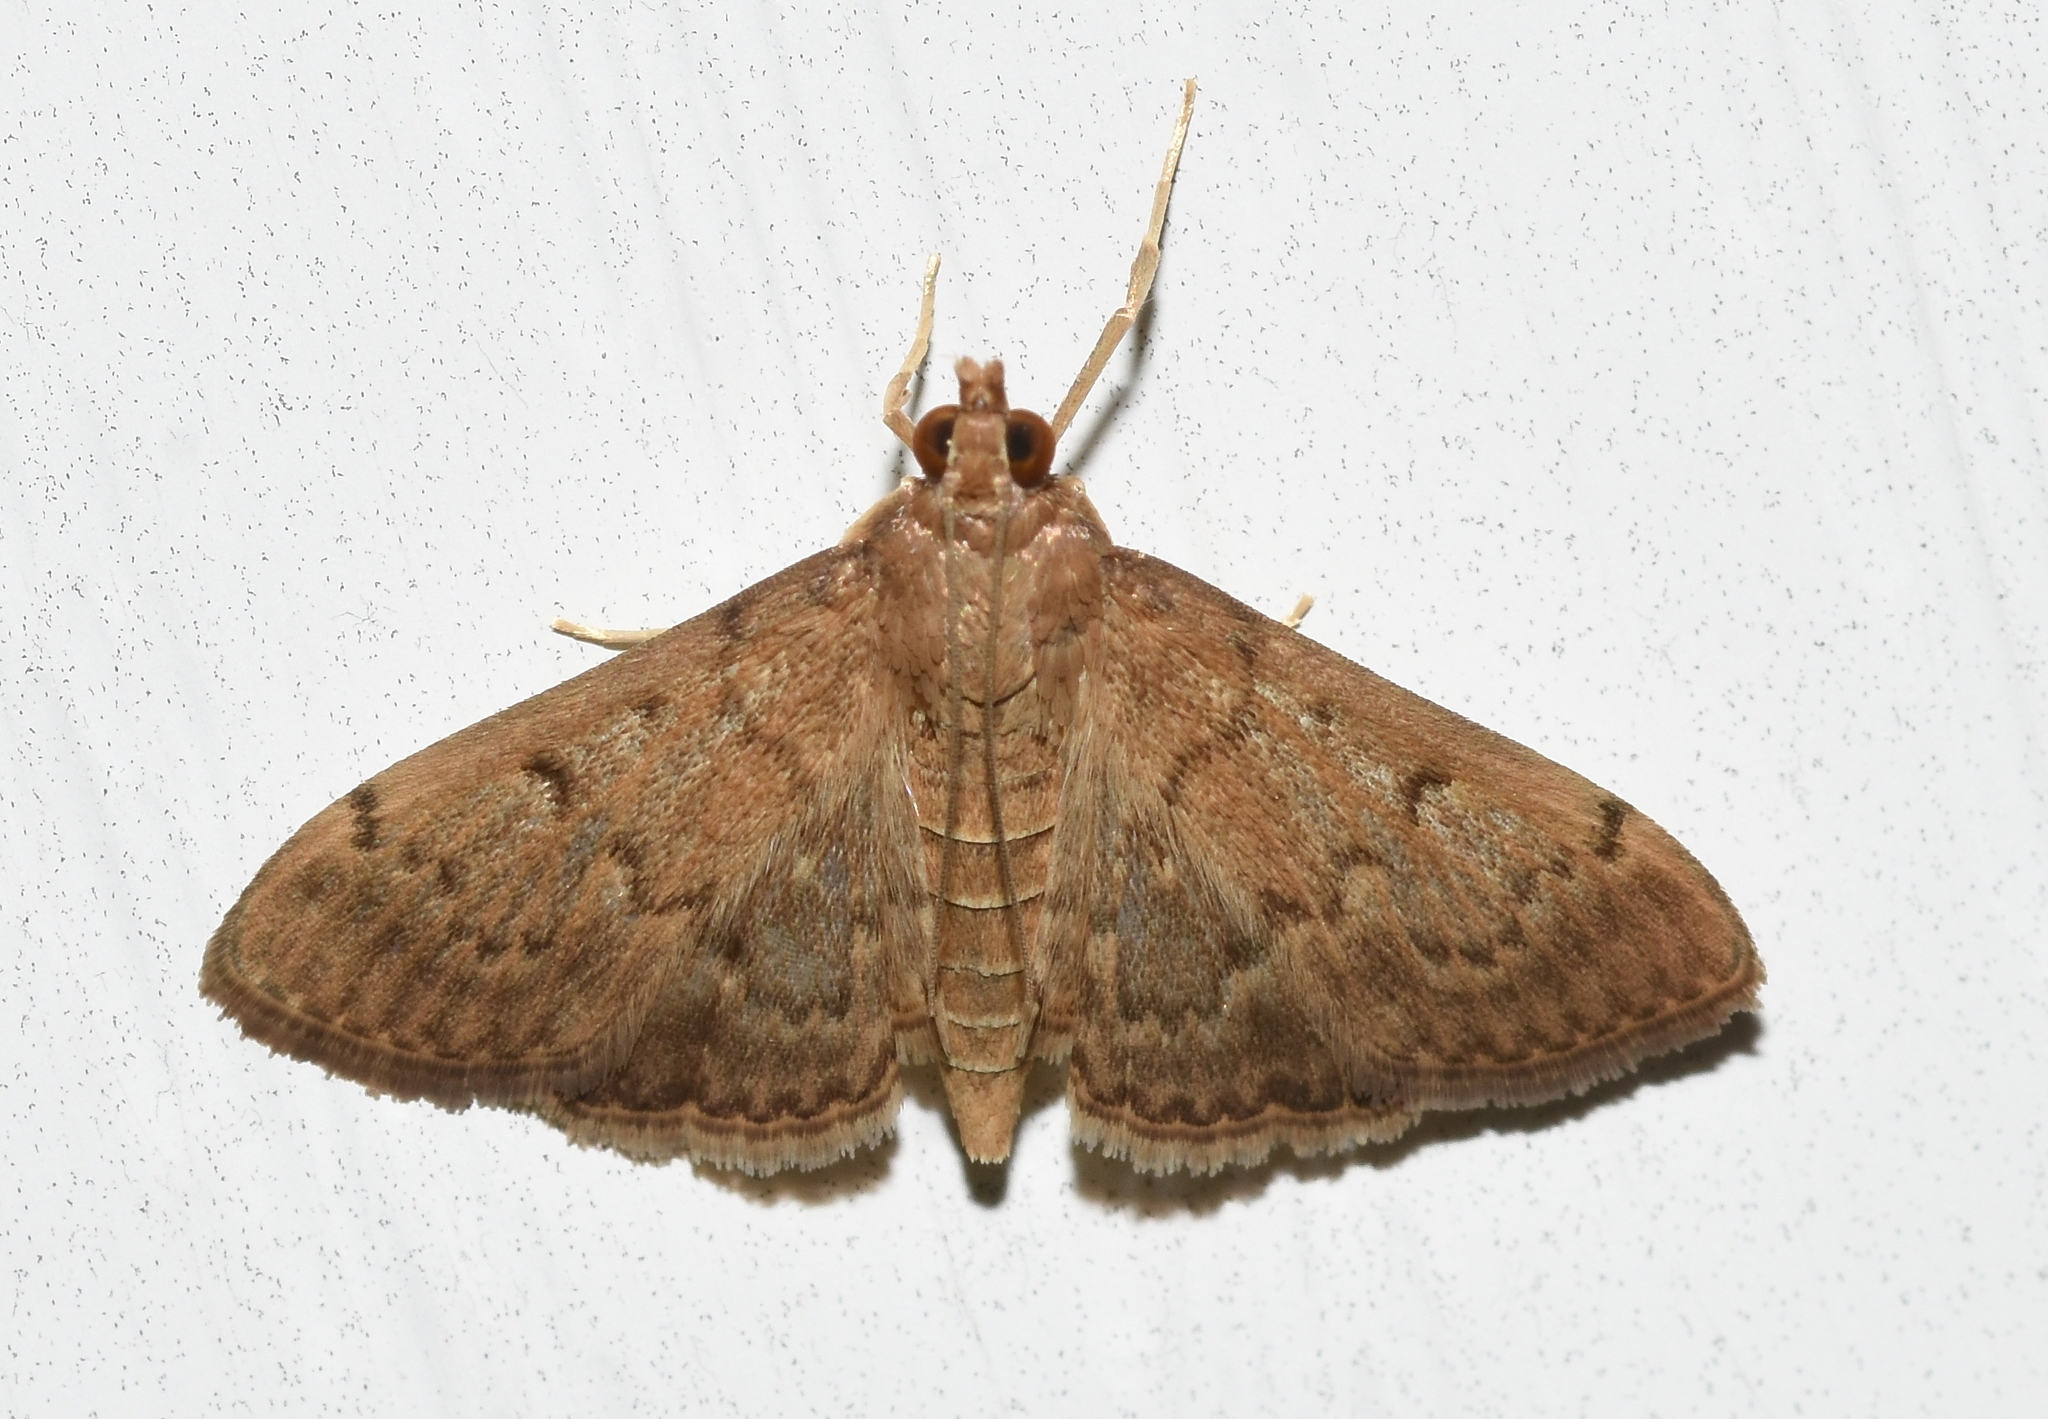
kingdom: Animalia
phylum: Arthropoda
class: Insecta
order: Lepidoptera
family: Crambidae
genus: Herpetogramma
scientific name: Herpetogramma phaeopteralis
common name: Dusky herpetogramma moth
